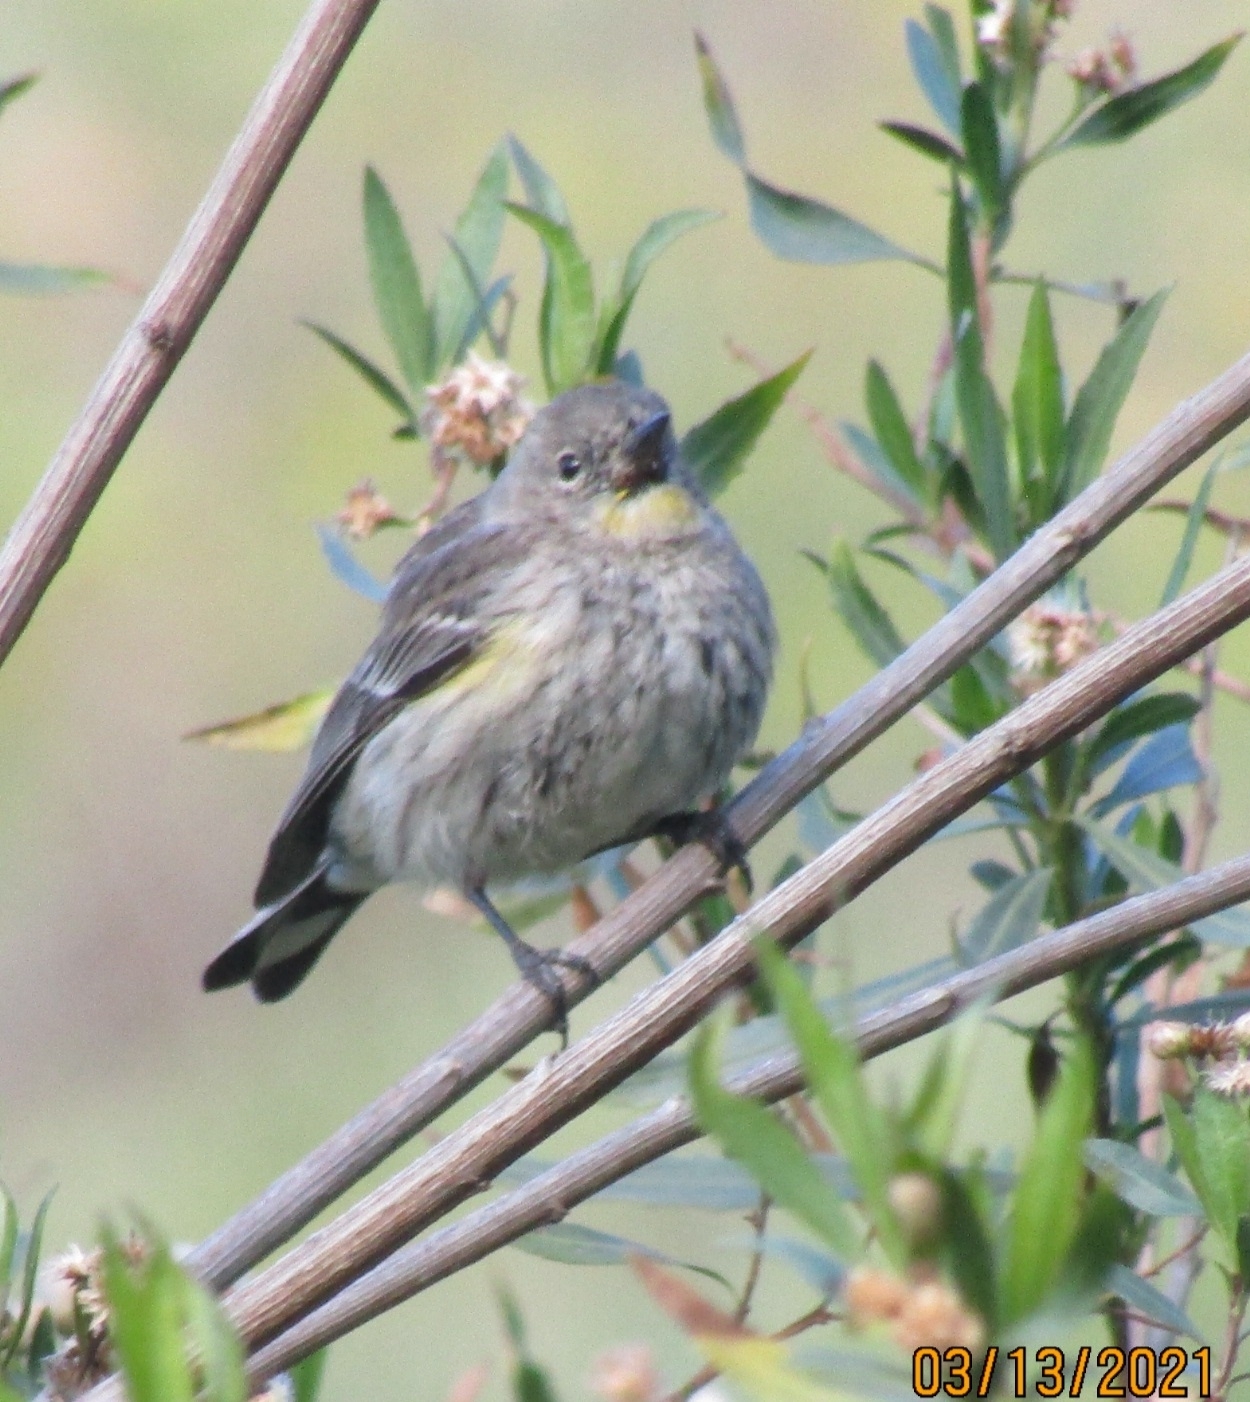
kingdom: Animalia
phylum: Chordata
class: Aves
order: Passeriformes
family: Parulidae
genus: Setophaga
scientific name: Setophaga coronata
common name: Myrtle warbler
